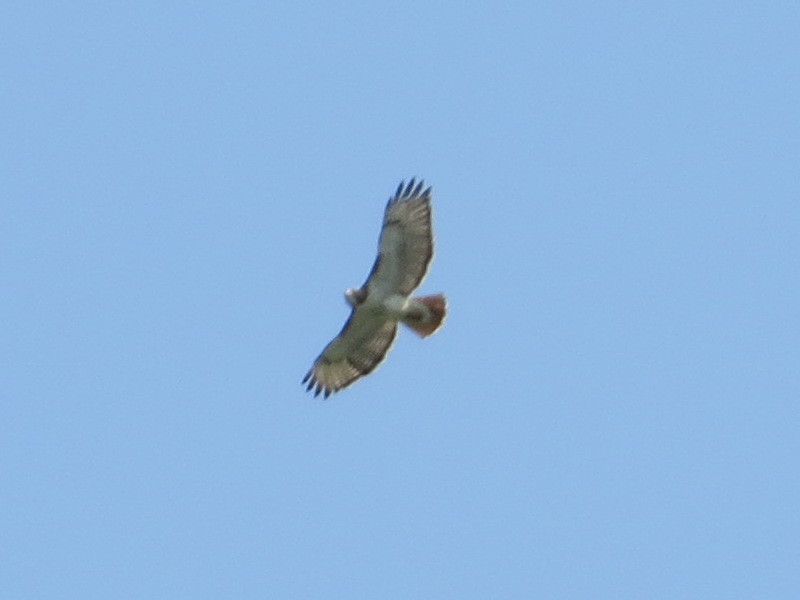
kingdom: Animalia
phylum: Chordata
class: Aves
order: Accipitriformes
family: Accipitridae
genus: Buteo
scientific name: Buteo jamaicensis
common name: Red-tailed hawk
